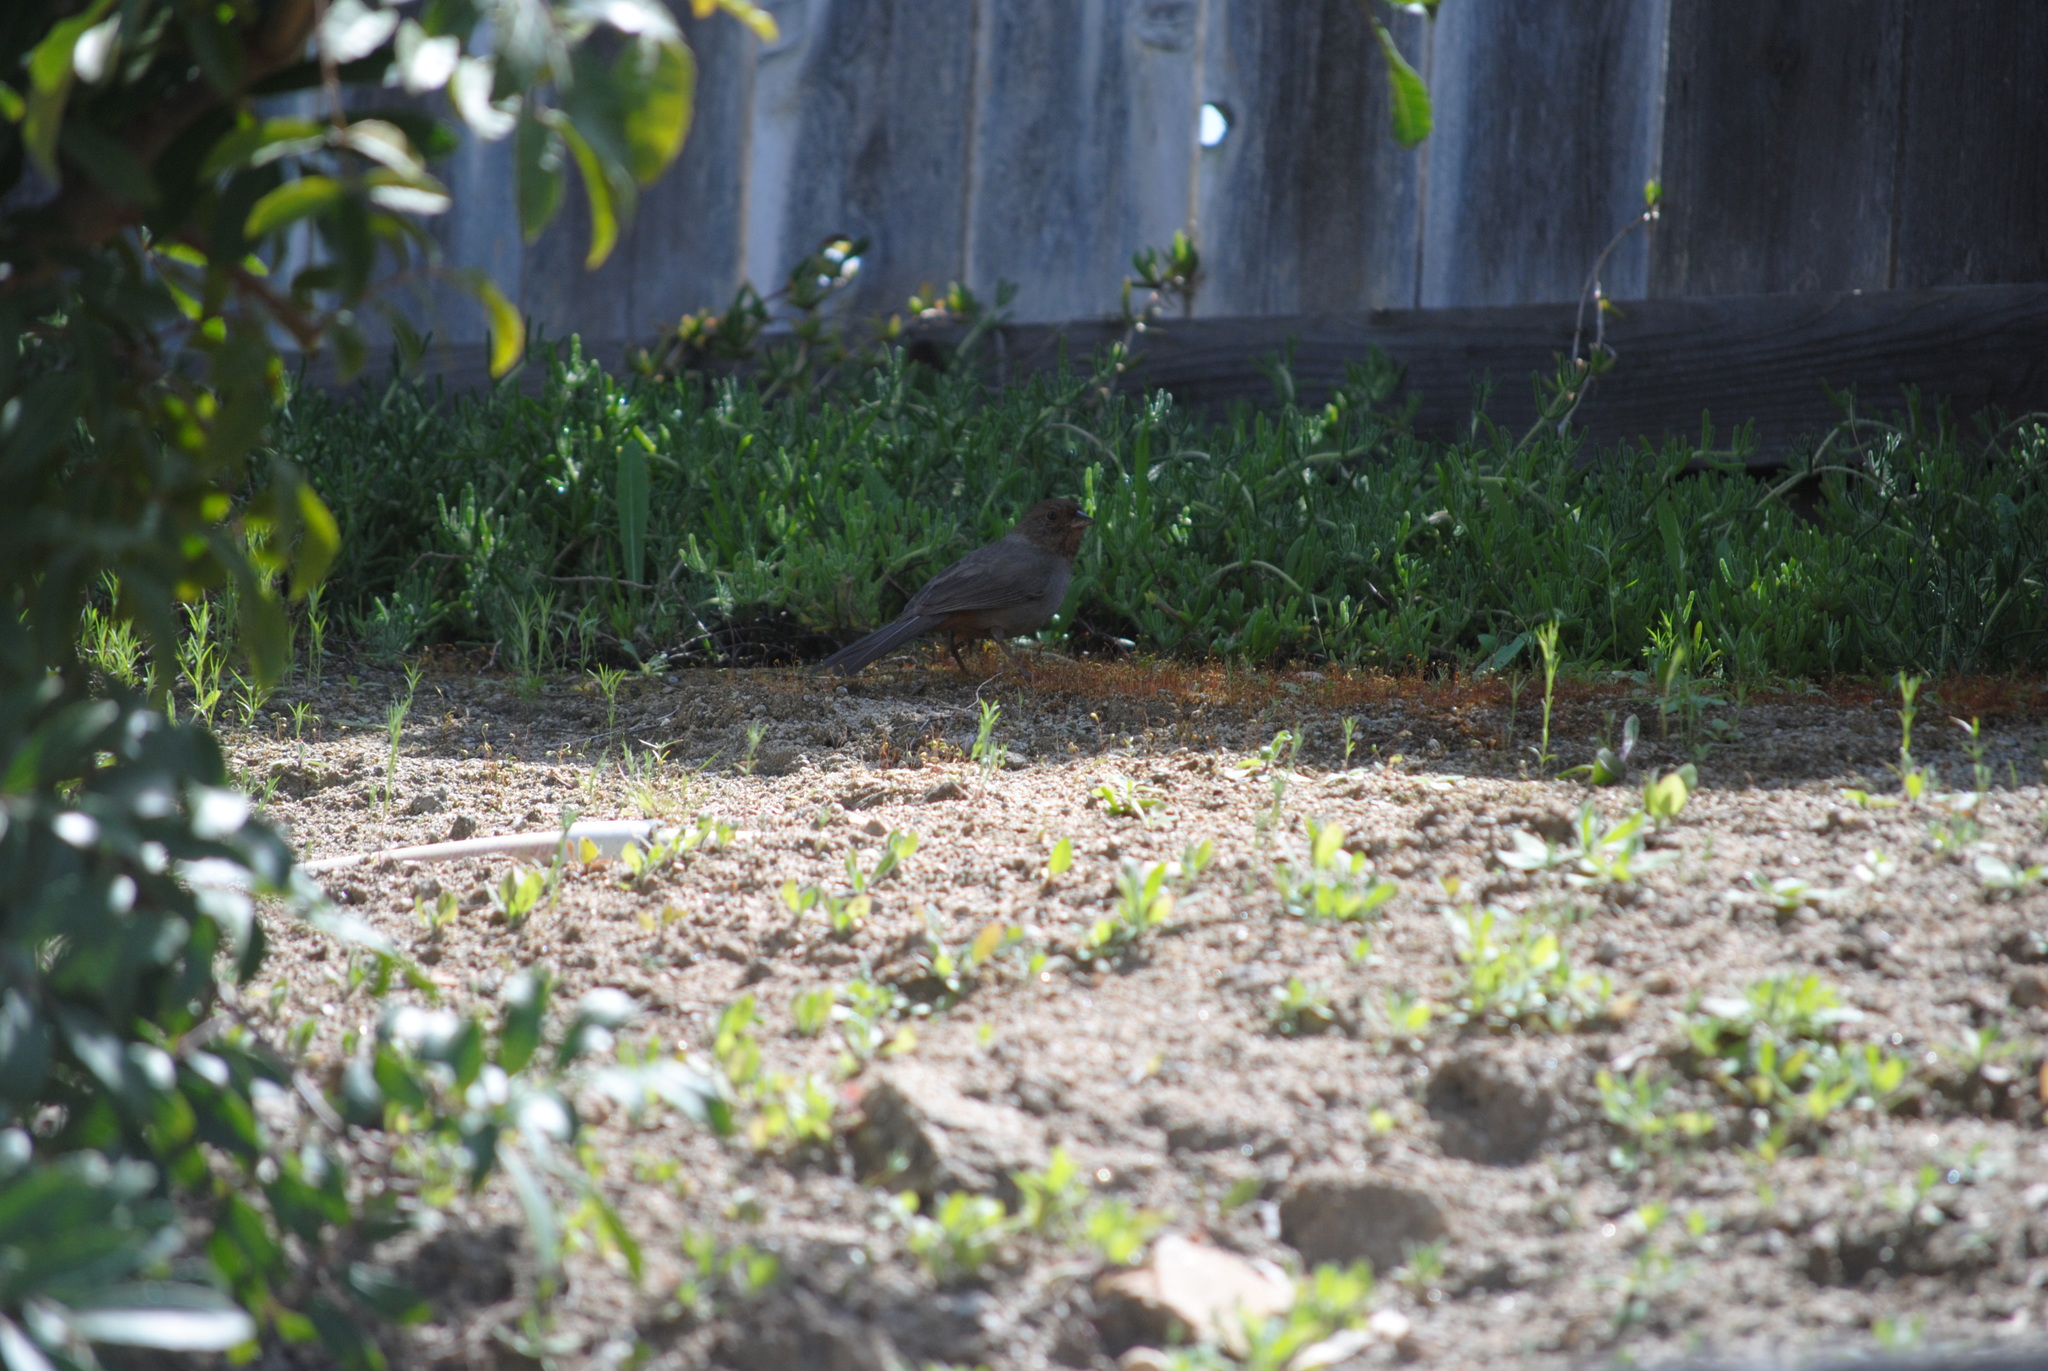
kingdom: Animalia
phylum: Chordata
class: Aves
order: Passeriformes
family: Passerellidae
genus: Melozone
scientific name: Melozone crissalis
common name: California towhee
